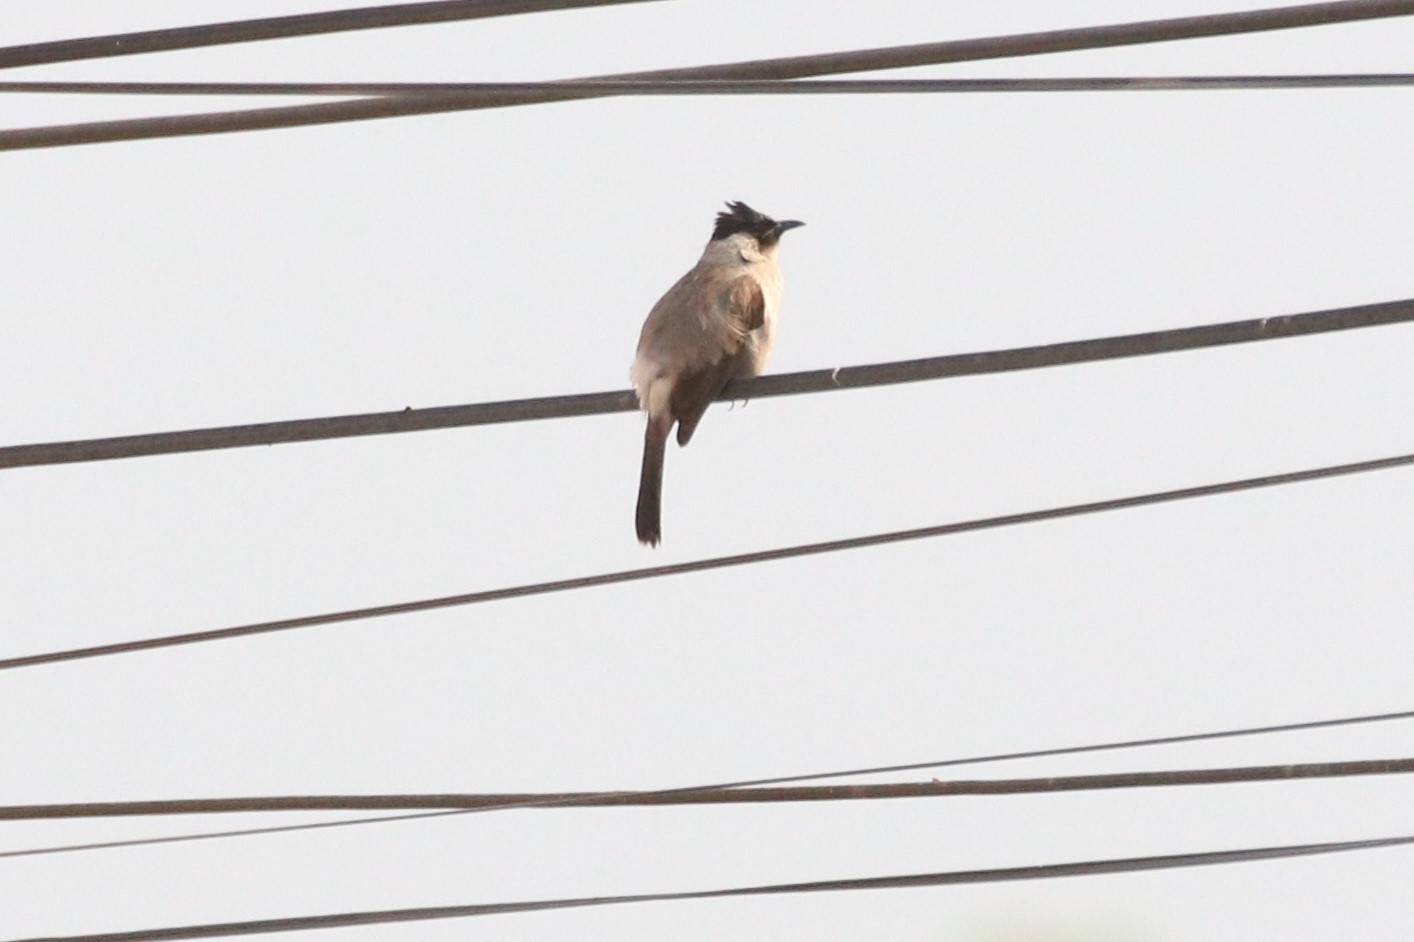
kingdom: Animalia
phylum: Chordata
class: Aves
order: Passeriformes
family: Pycnonotidae
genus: Pycnonotus
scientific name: Pycnonotus aurigaster
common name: Sooty-headed bulbul
